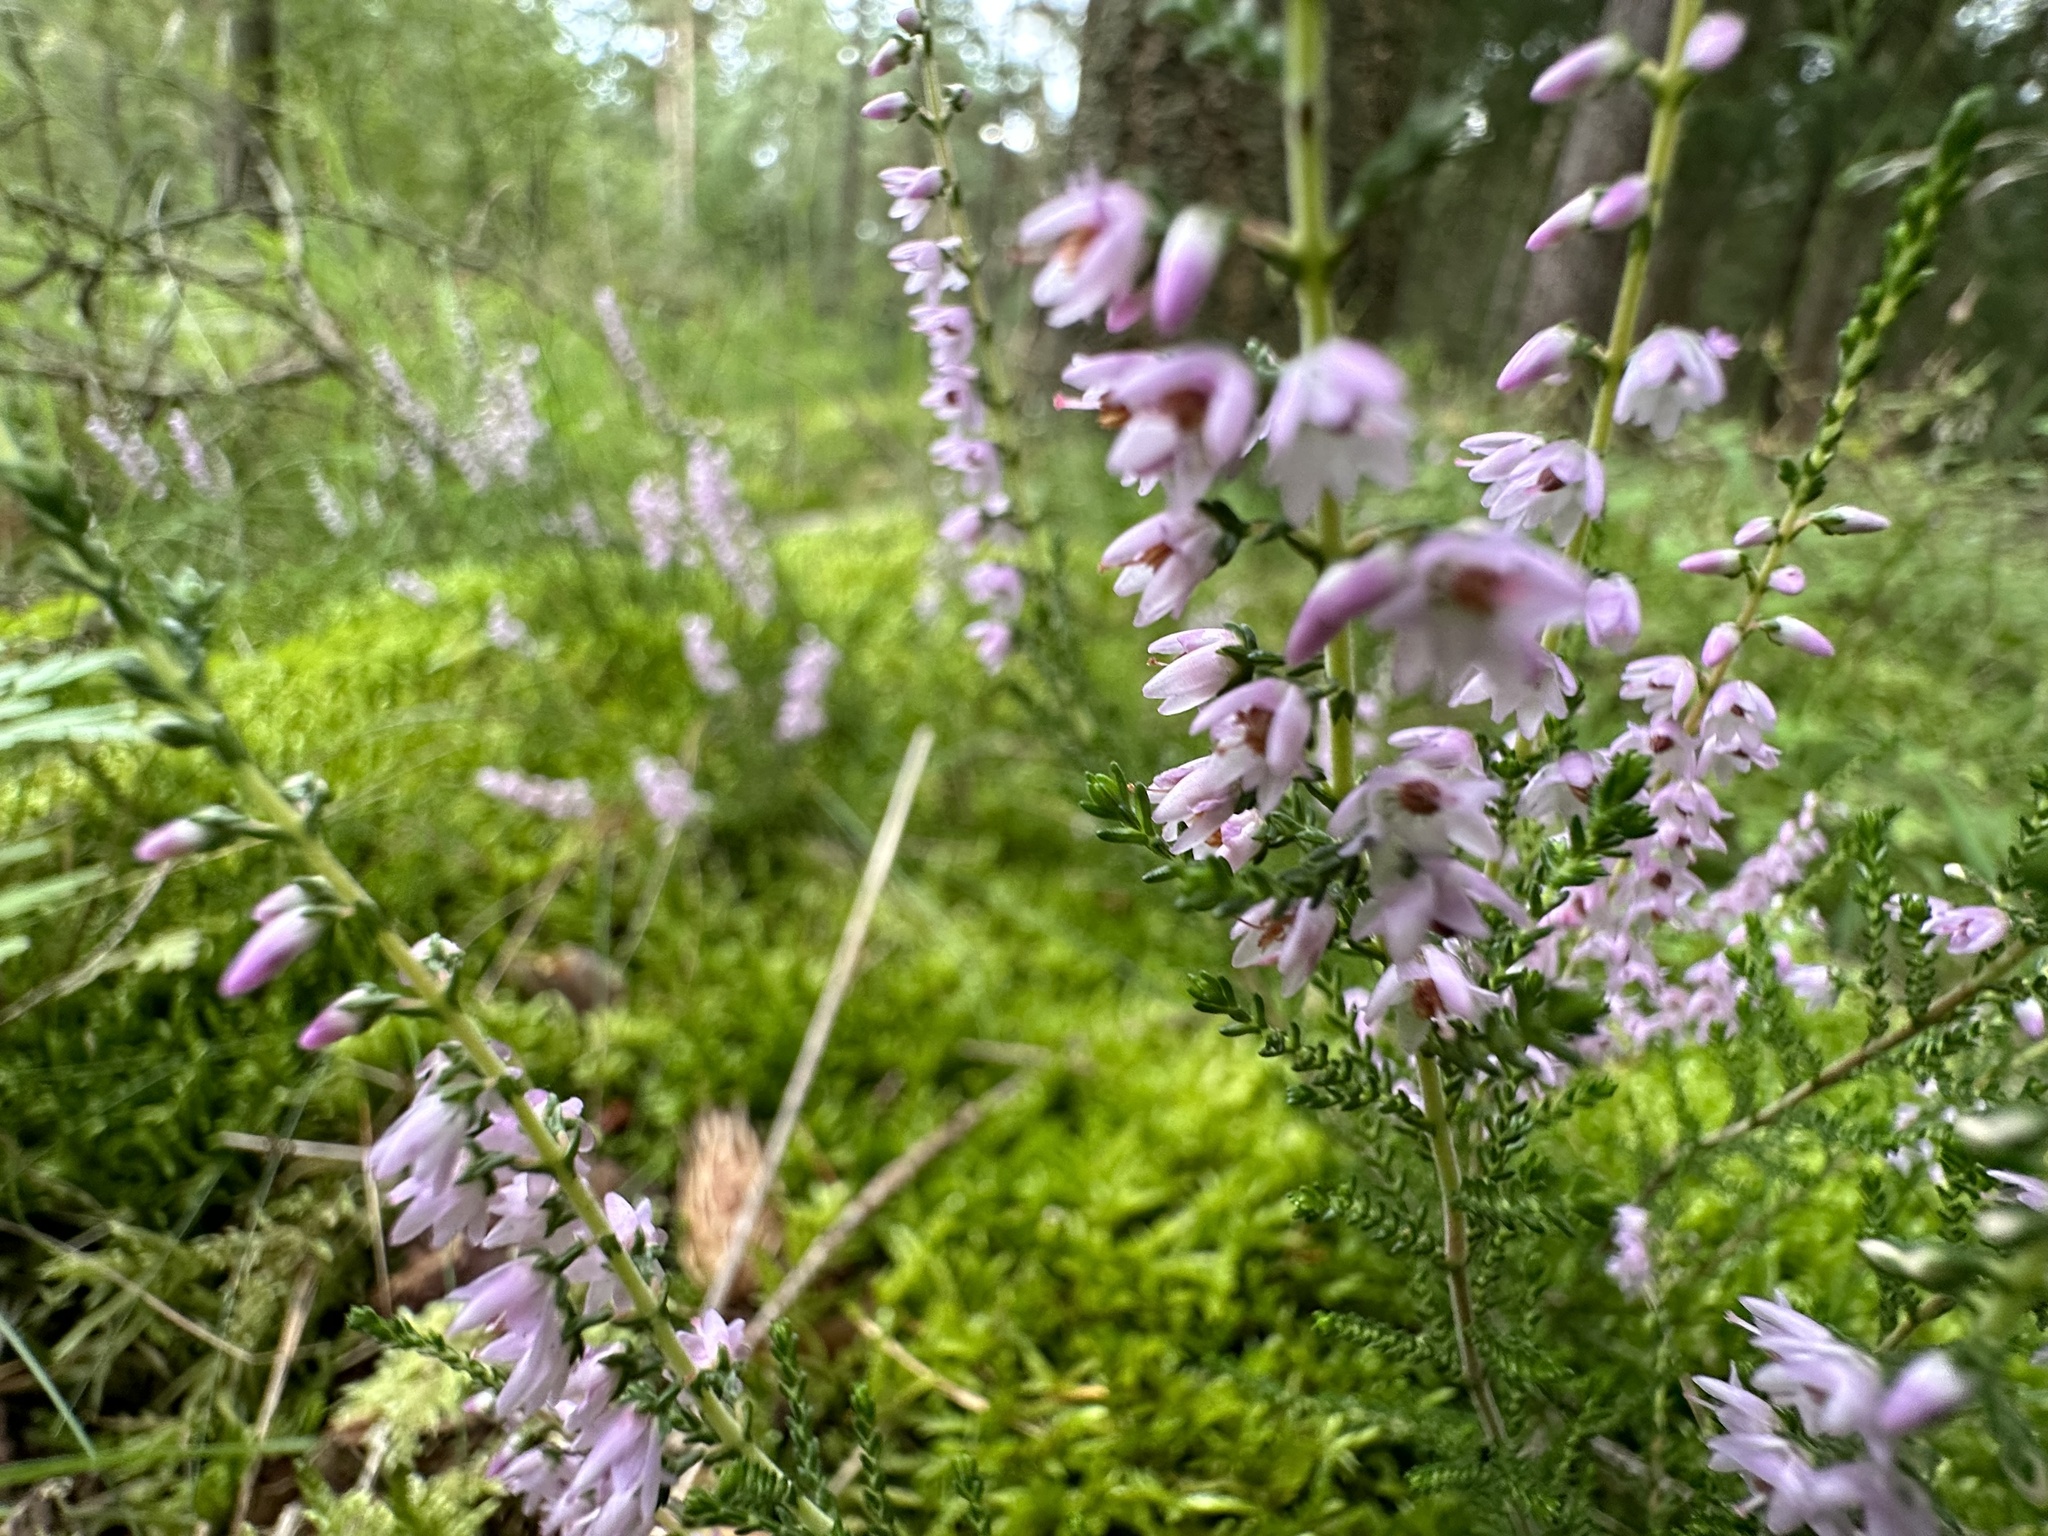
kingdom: Plantae
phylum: Tracheophyta
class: Magnoliopsida
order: Ericales
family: Ericaceae
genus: Calluna
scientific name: Calluna vulgaris
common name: Heather
